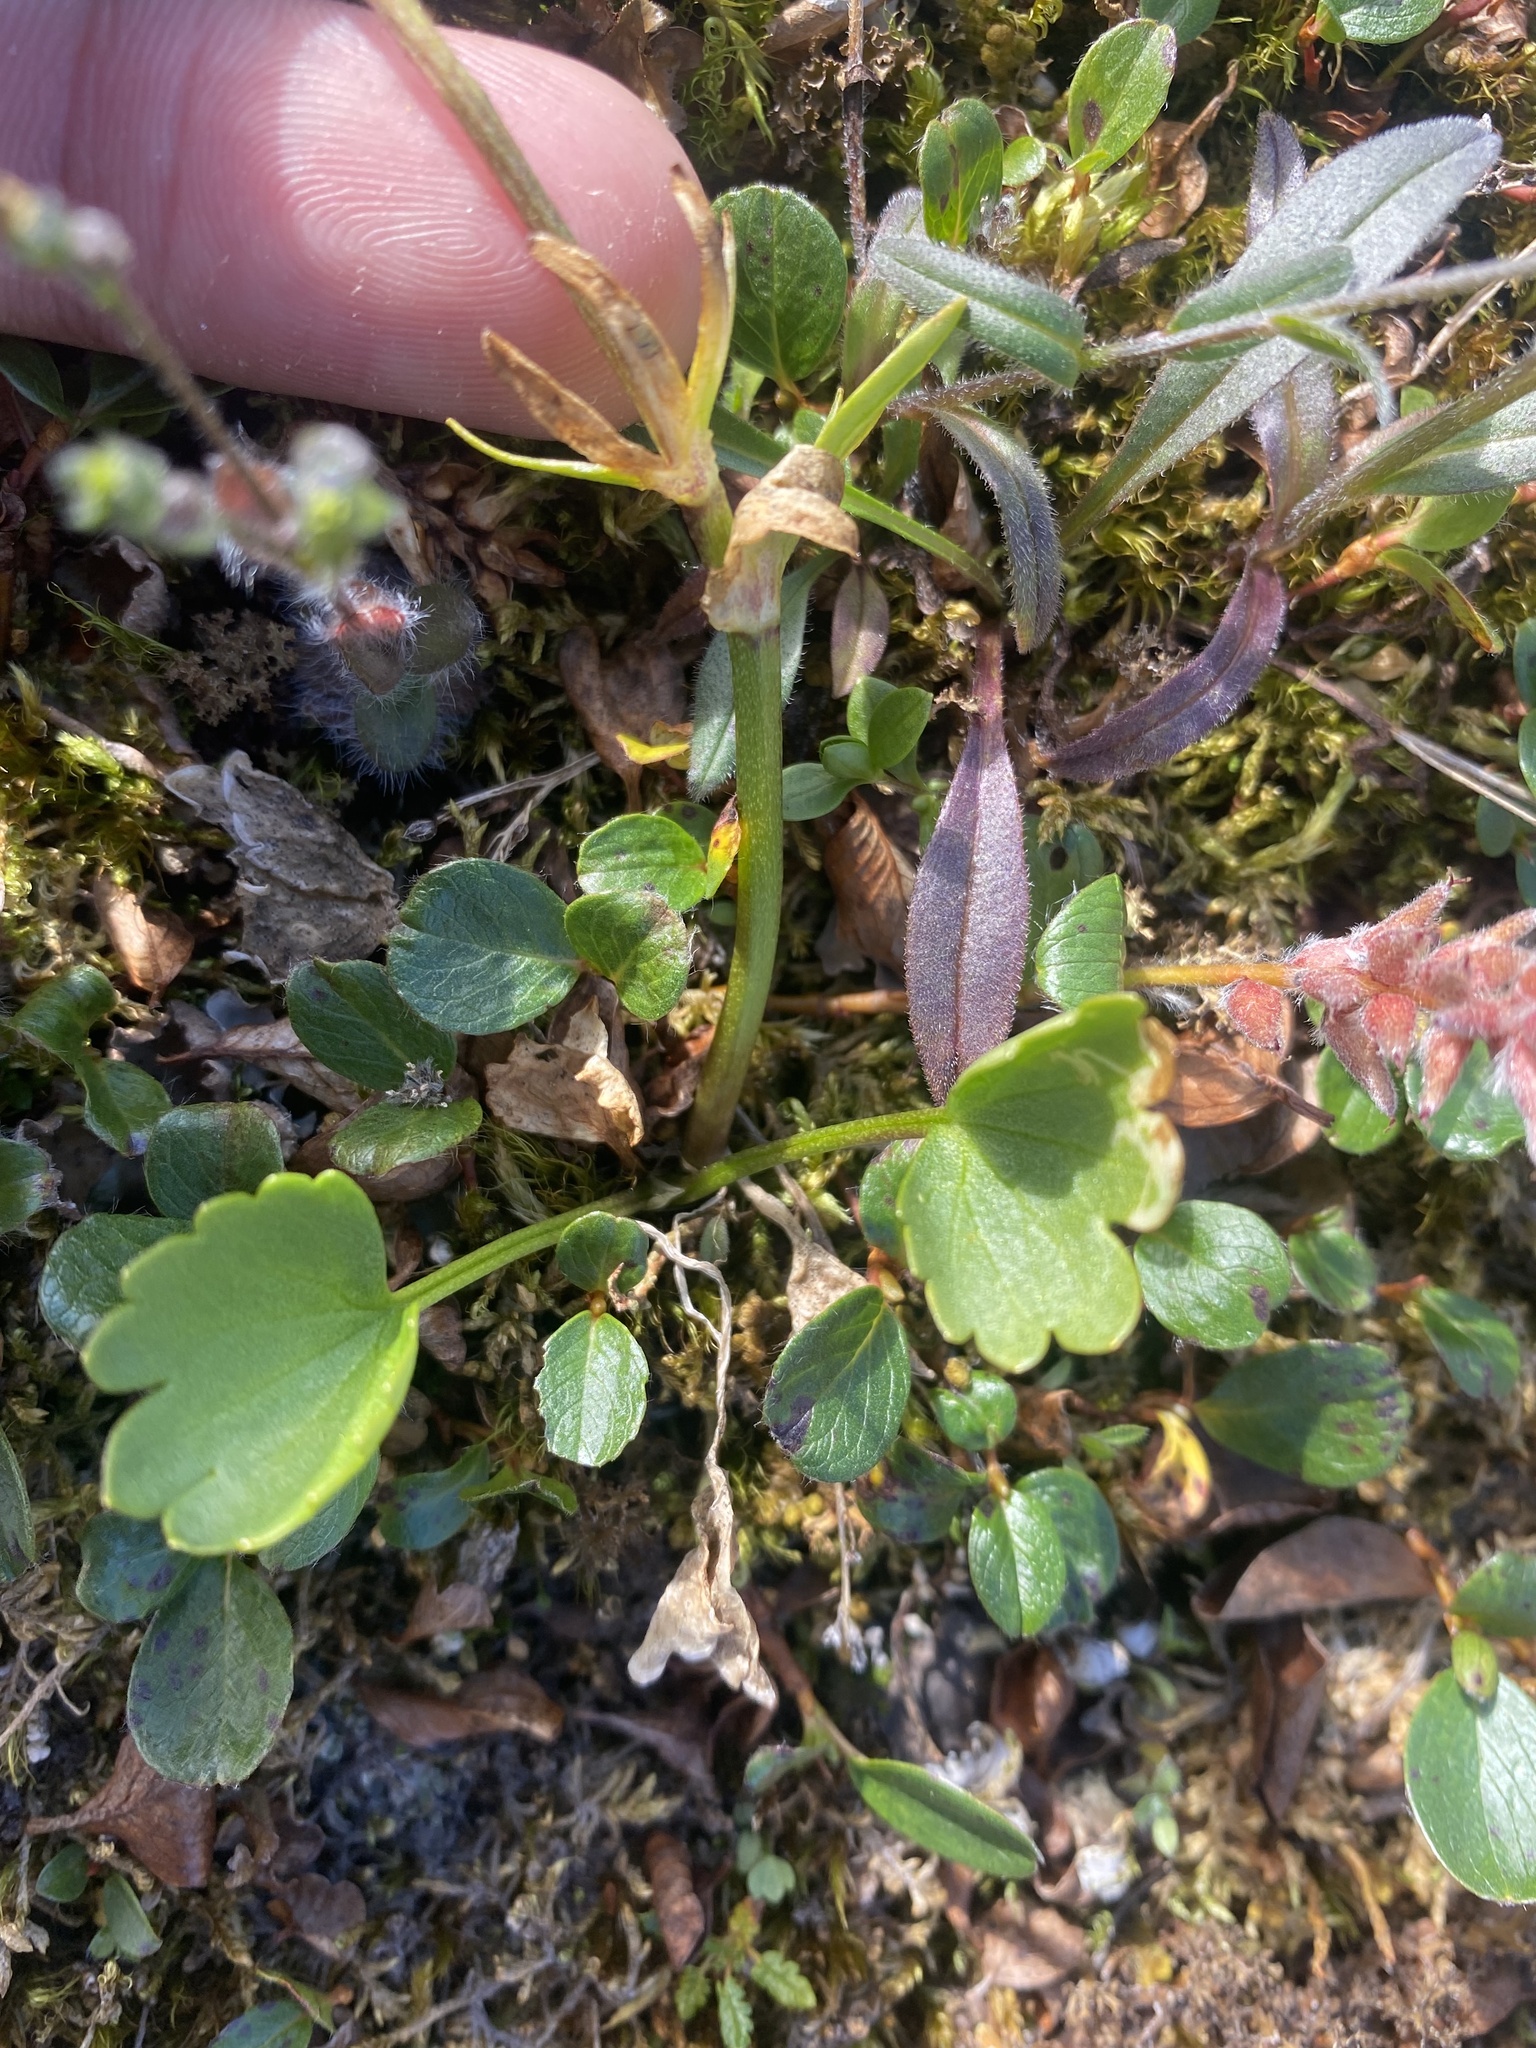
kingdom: Plantae
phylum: Tracheophyta
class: Magnoliopsida
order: Ranunculales
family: Ranunculaceae
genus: Ranunculus
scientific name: Ranunculus sulphureus
